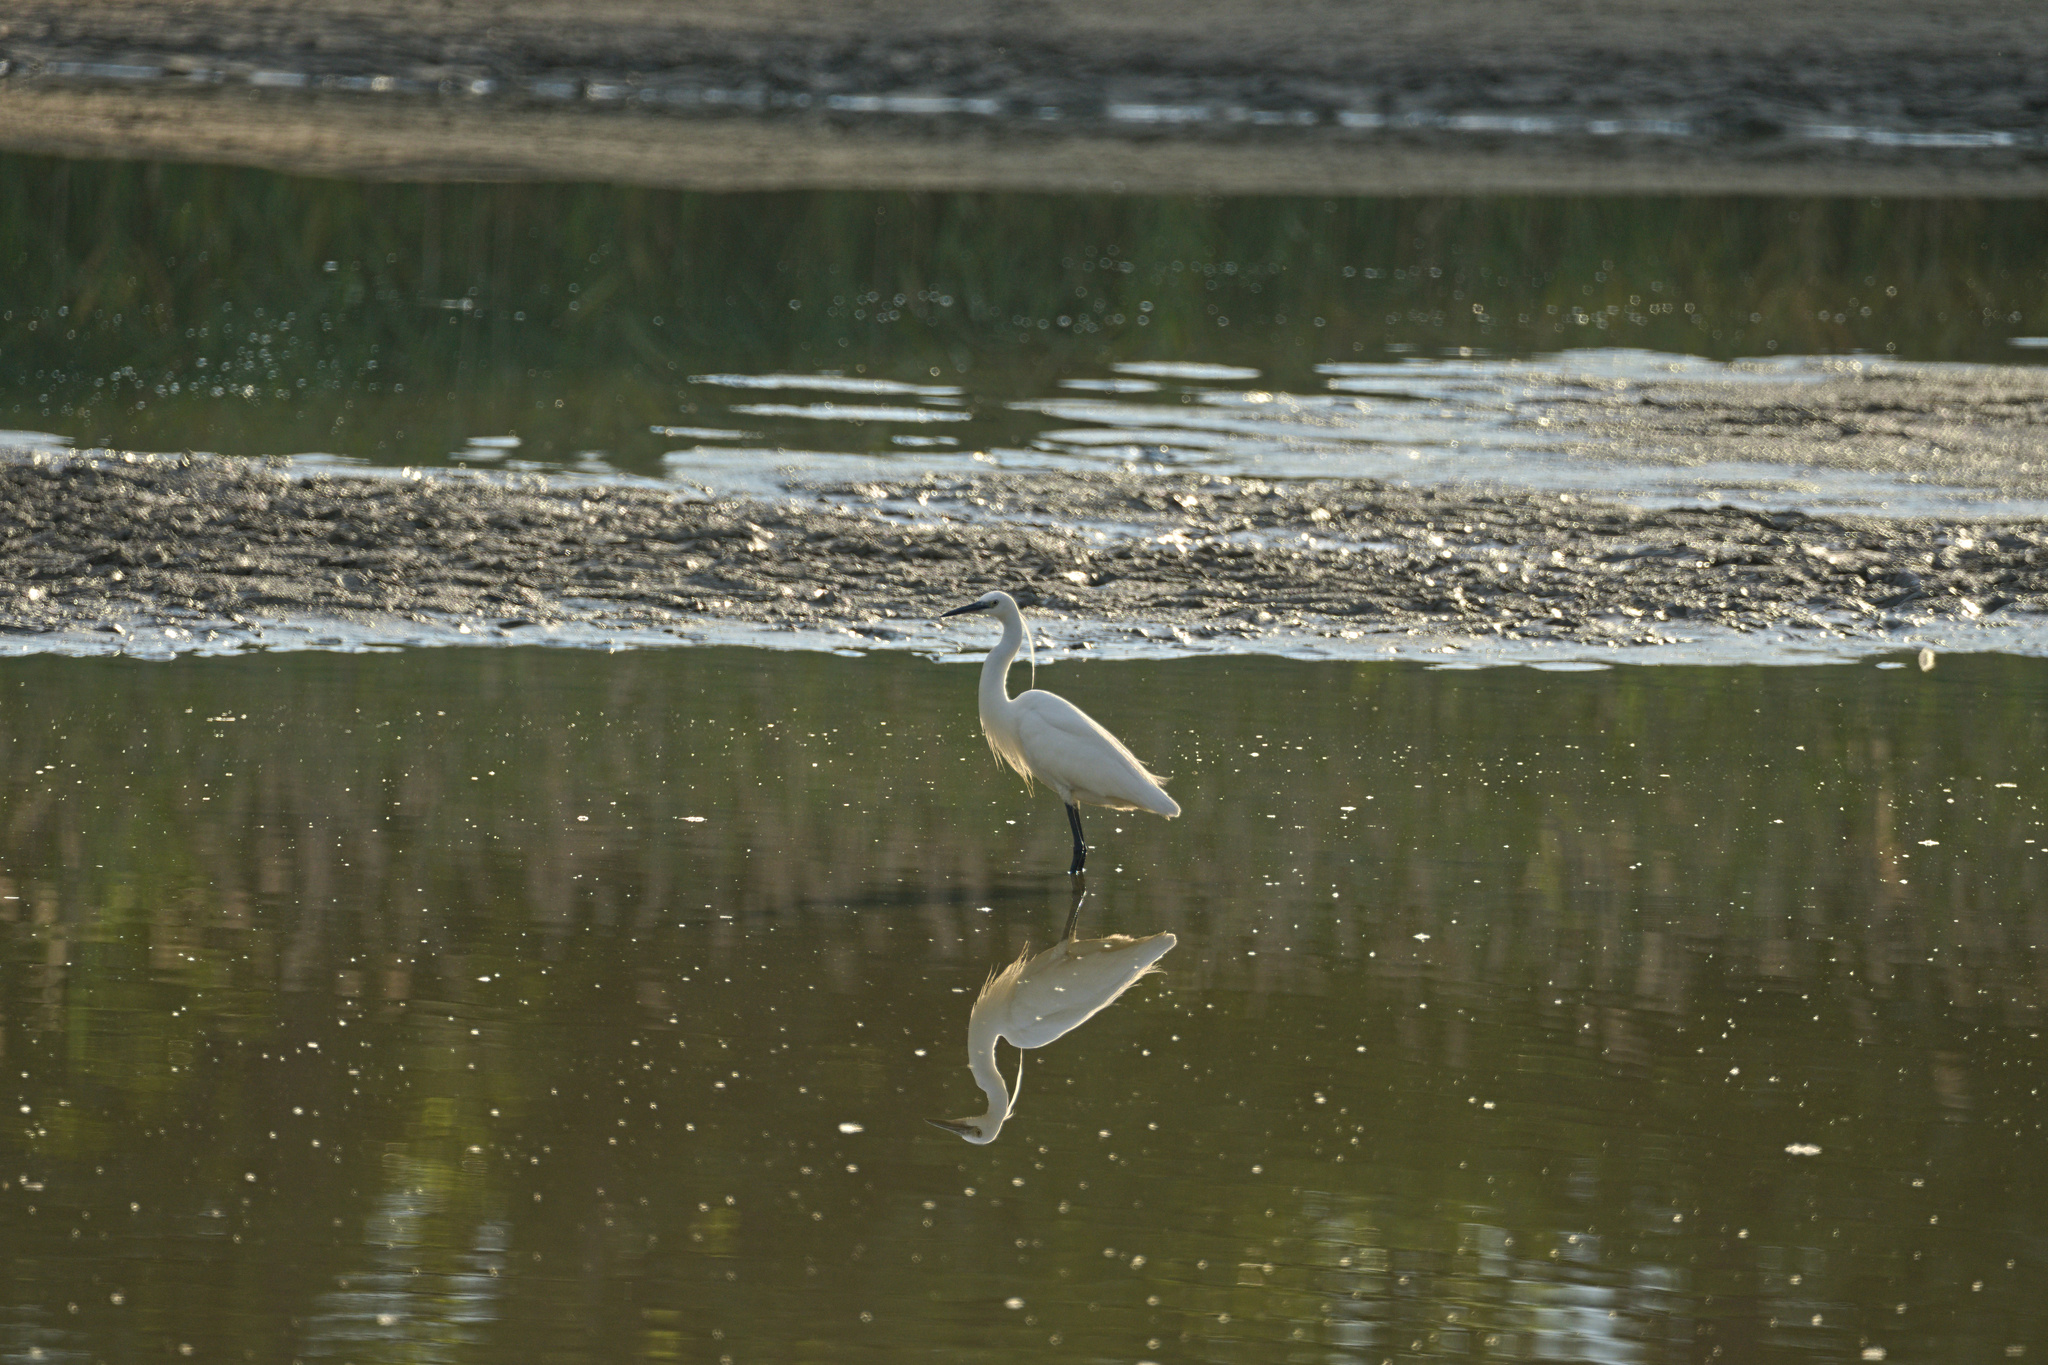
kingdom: Animalia
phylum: Chordata
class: Aves
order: Pelecaniformes
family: Ardeidae
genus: Egretta
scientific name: Egretta garzetta
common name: Little egret
